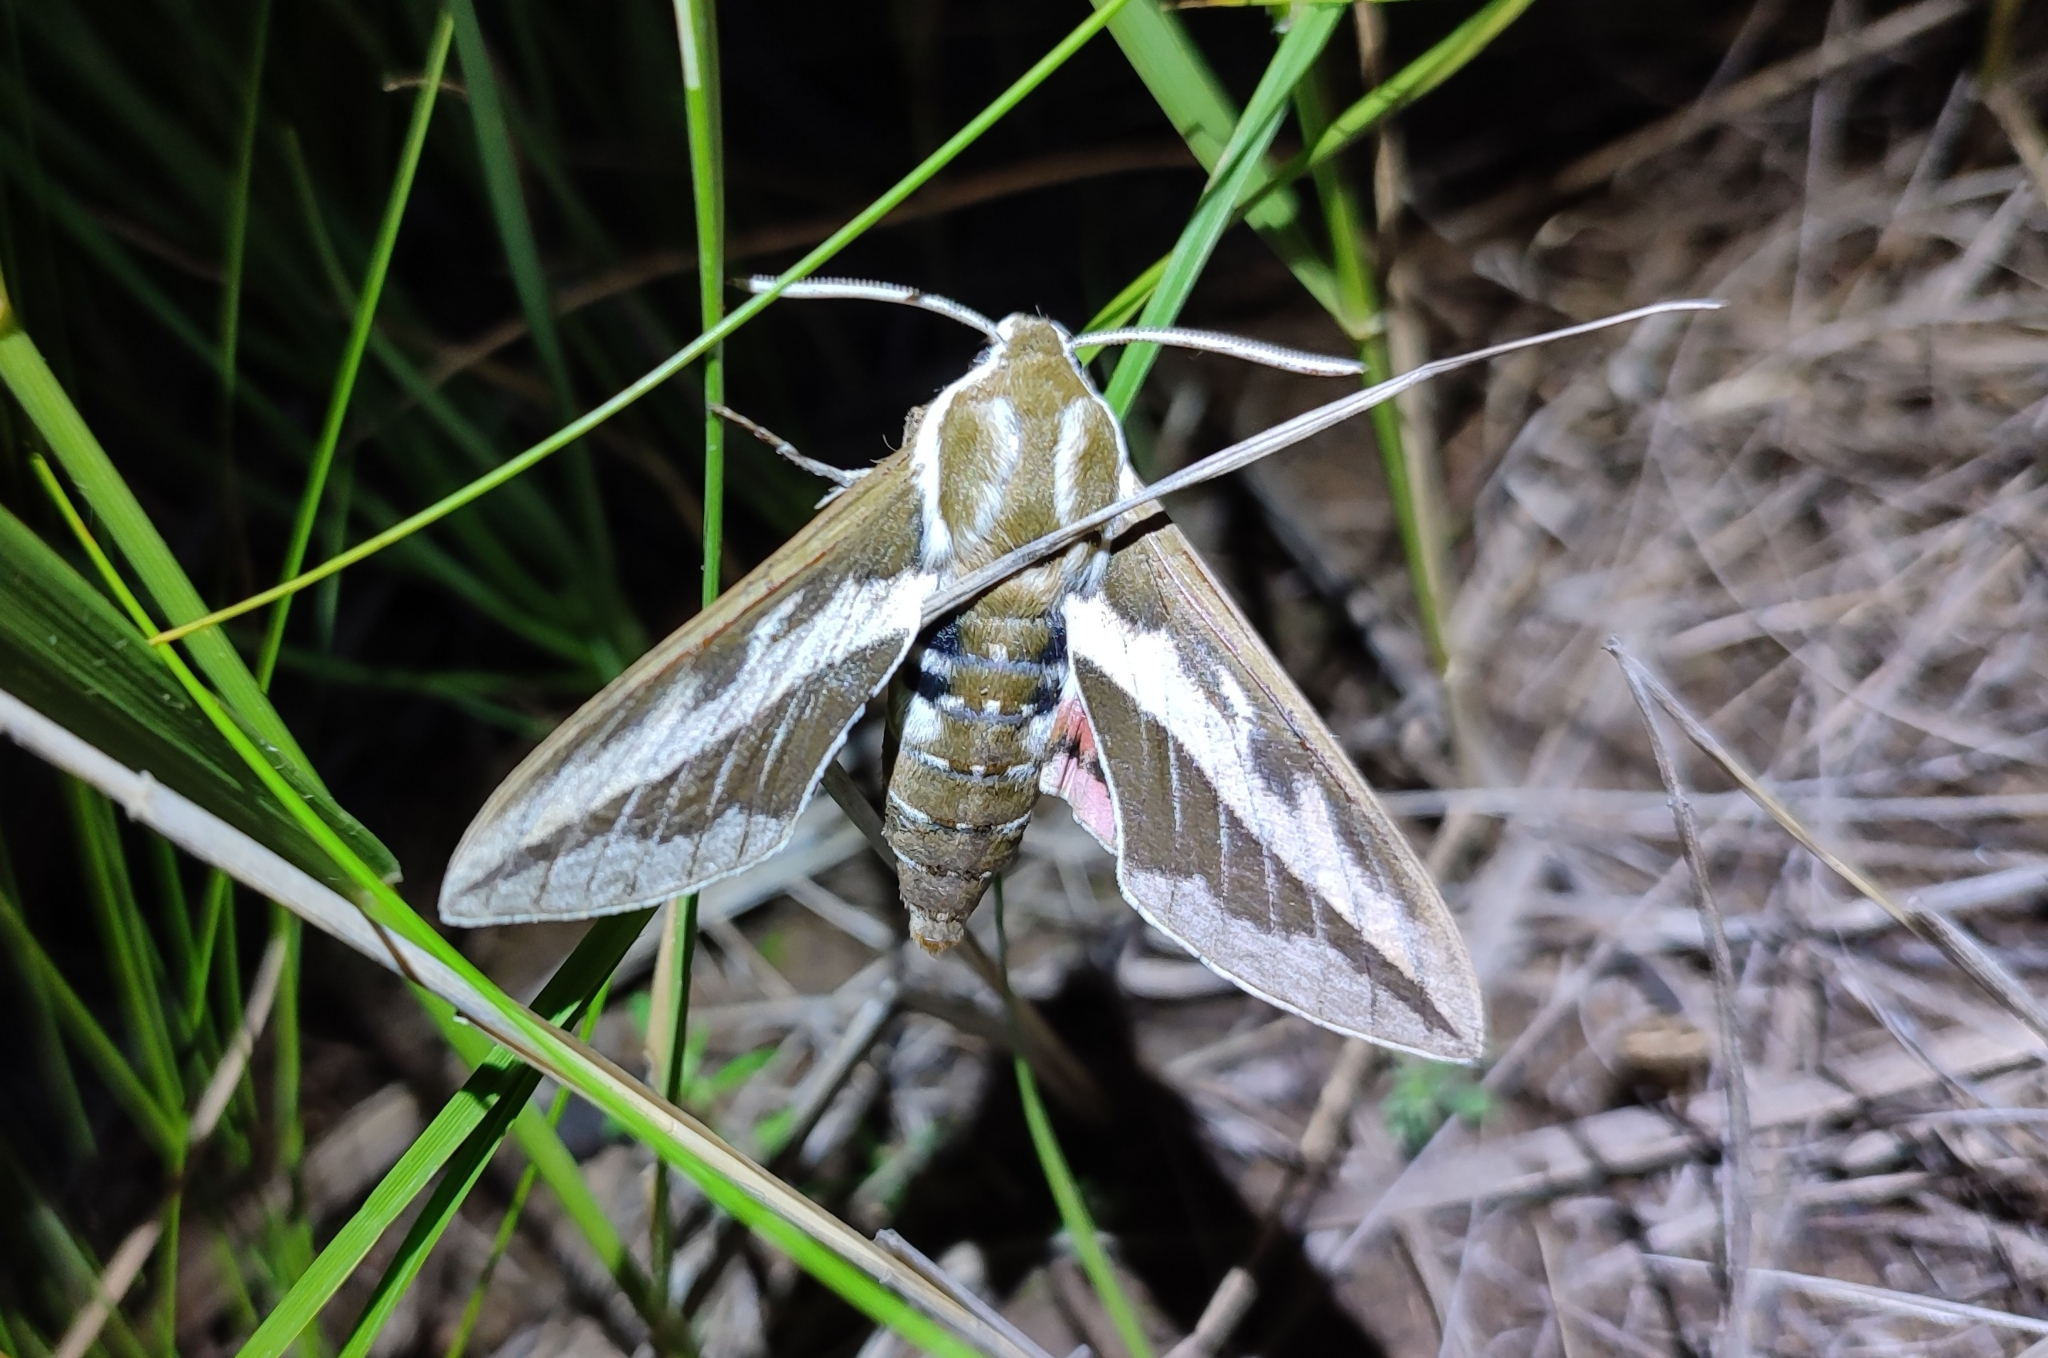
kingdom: Animalia
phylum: Arthropoda
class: Insecta
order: Lepidoptera
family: Sphingidae
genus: Hyles
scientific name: Hyles costata
